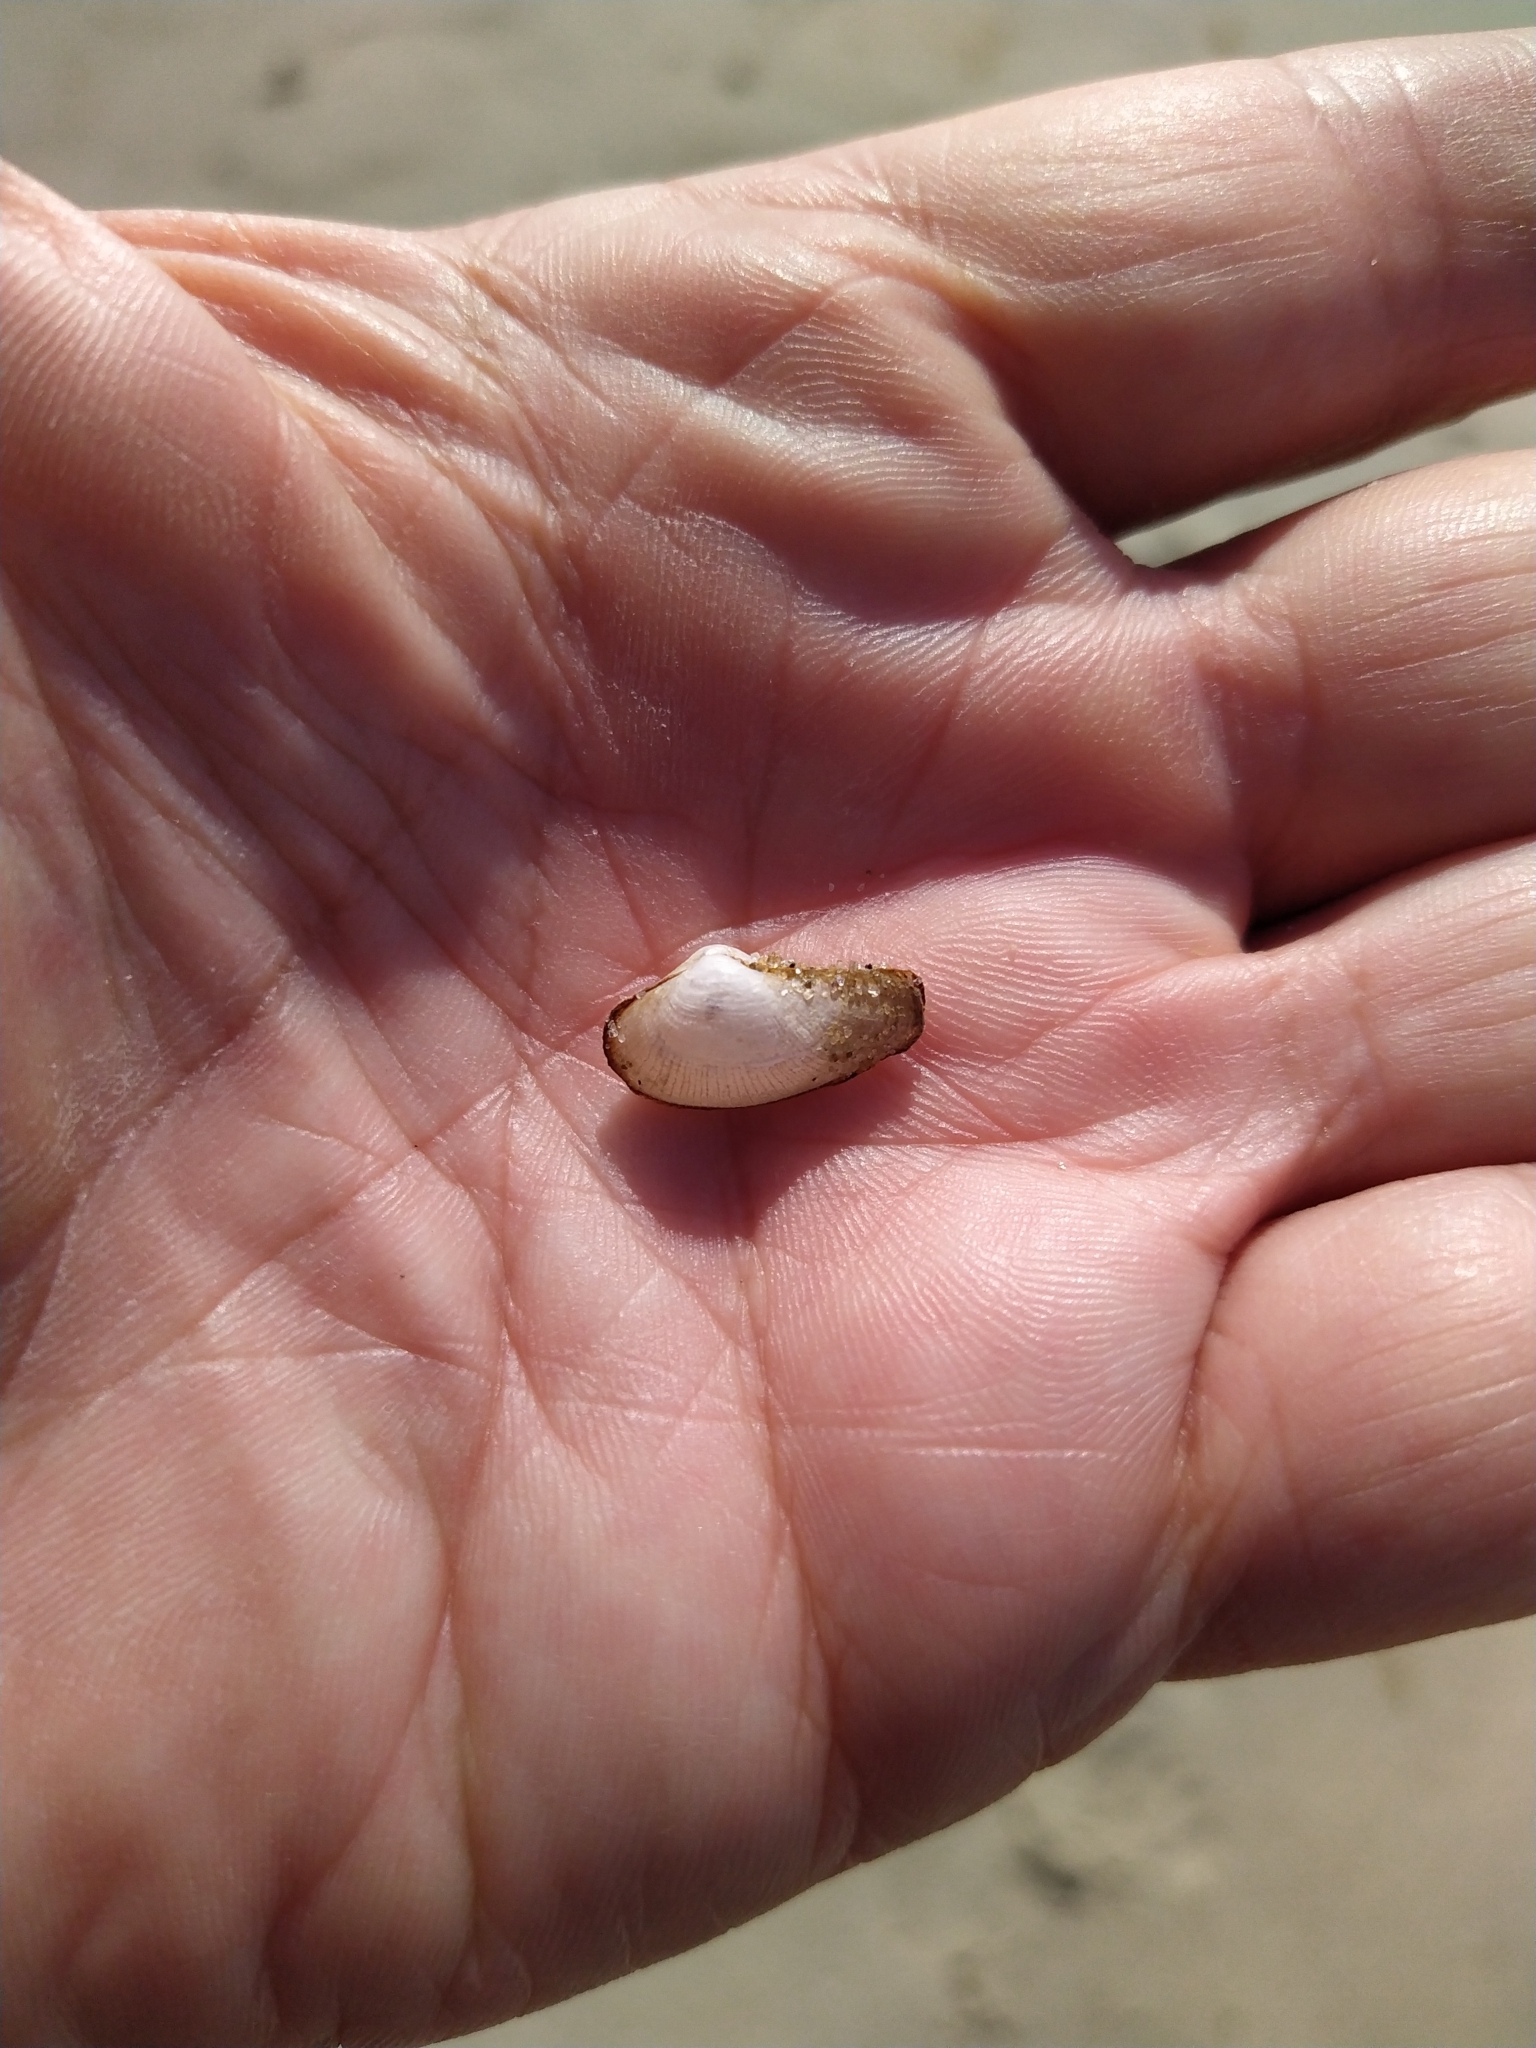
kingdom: Animalia
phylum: Mollusca
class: Bivalvia
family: Lyonsiidae
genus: Lyonsia
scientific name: Lyonsia hyalina
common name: Glassy lyonsia
